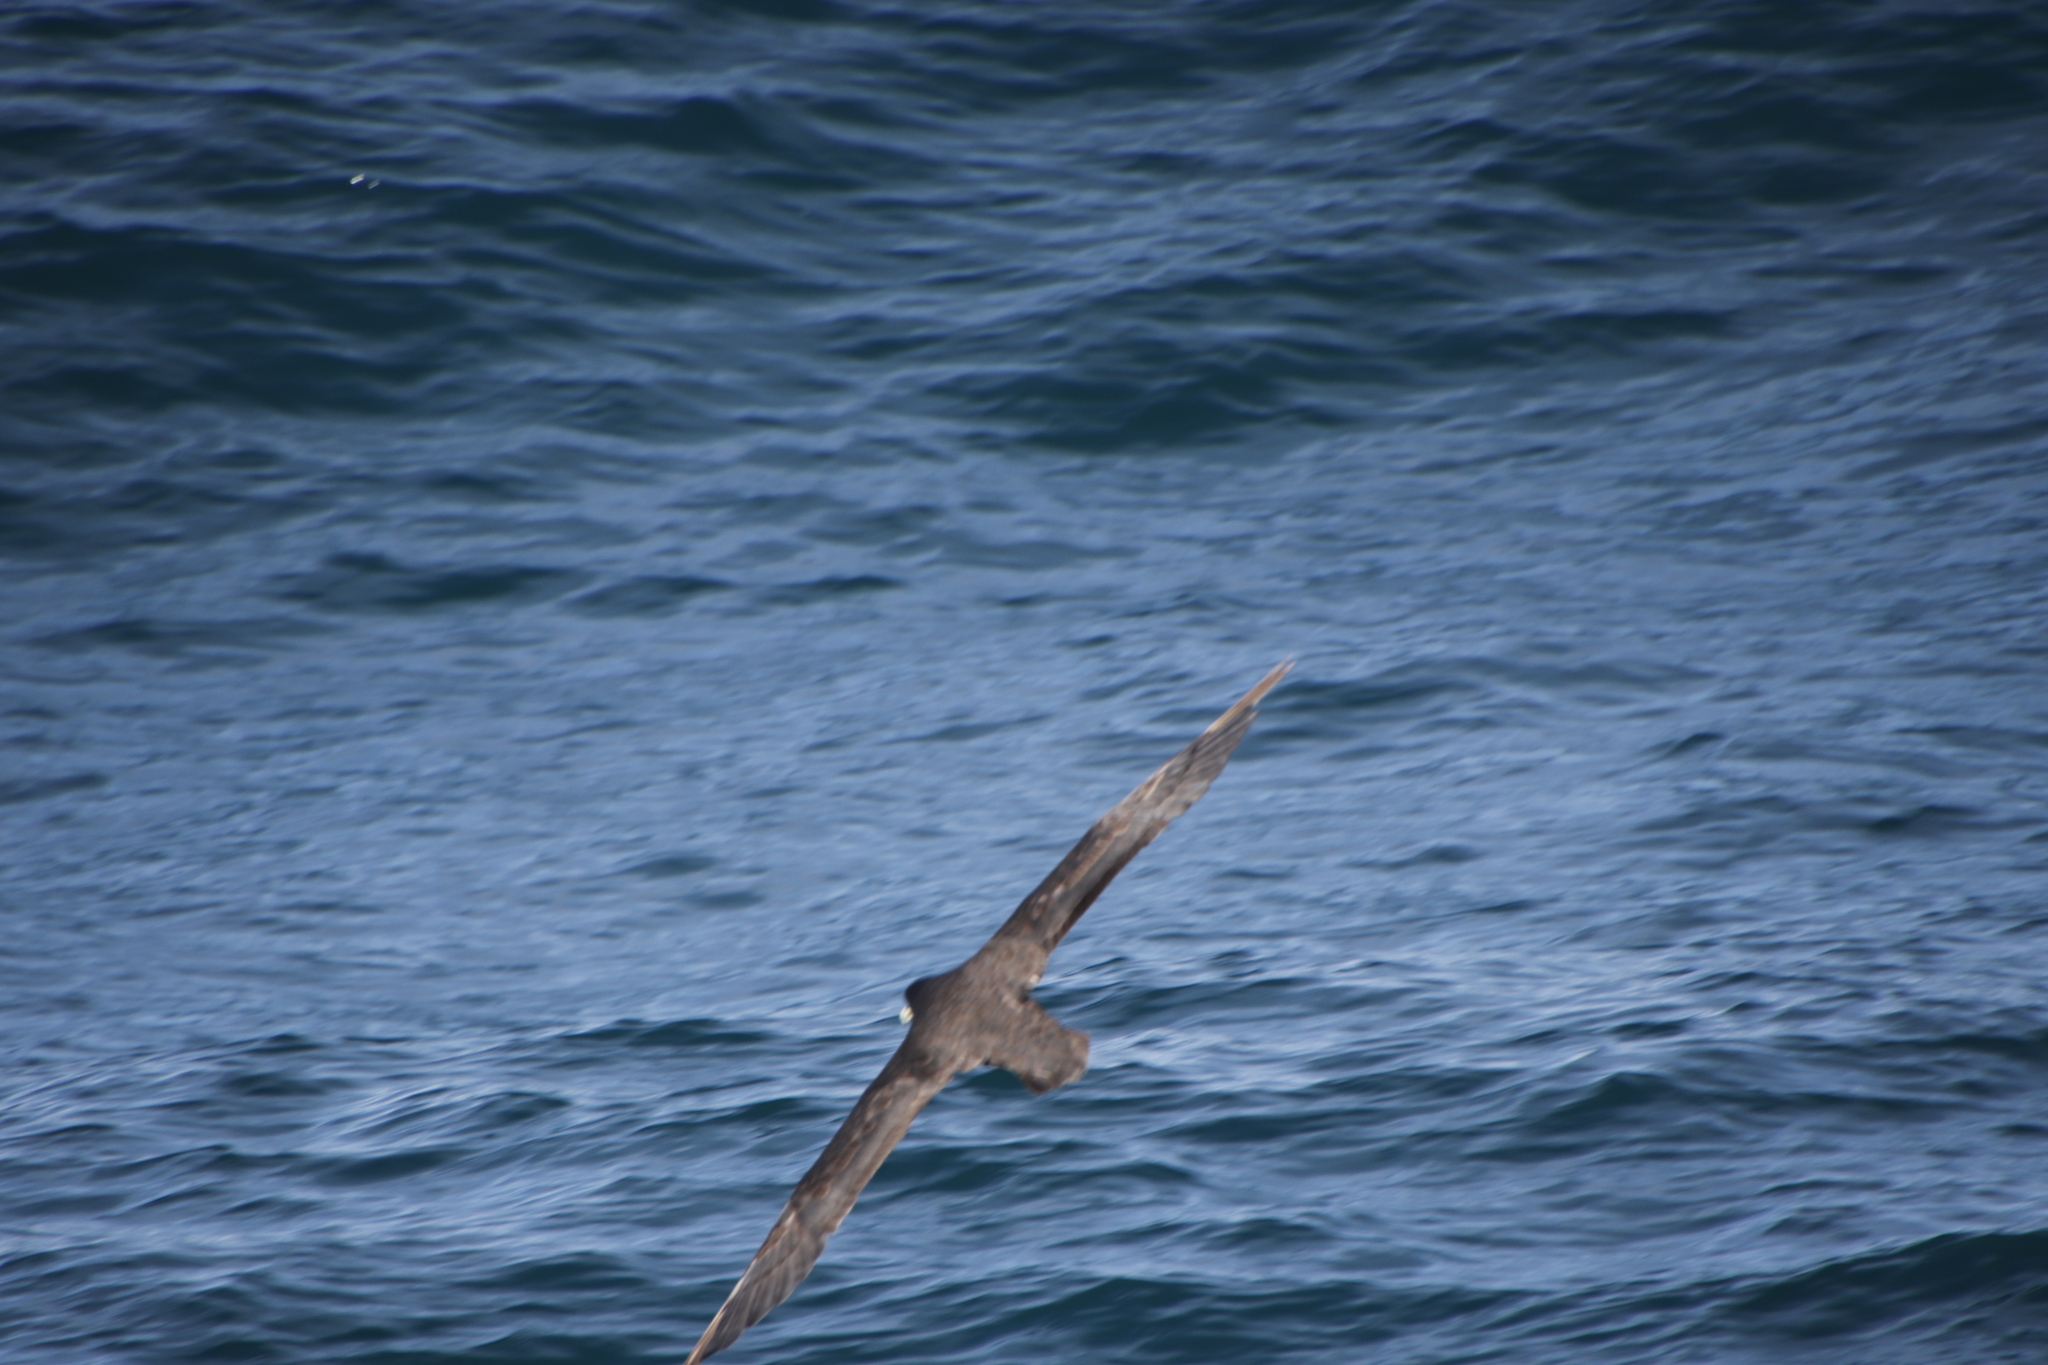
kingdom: Animalia
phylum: Chordata
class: Aves
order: Procellariiformes
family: Procellariidae
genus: Procellaria
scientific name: Procellaria aequinoctialis
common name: White-chinned petrel
